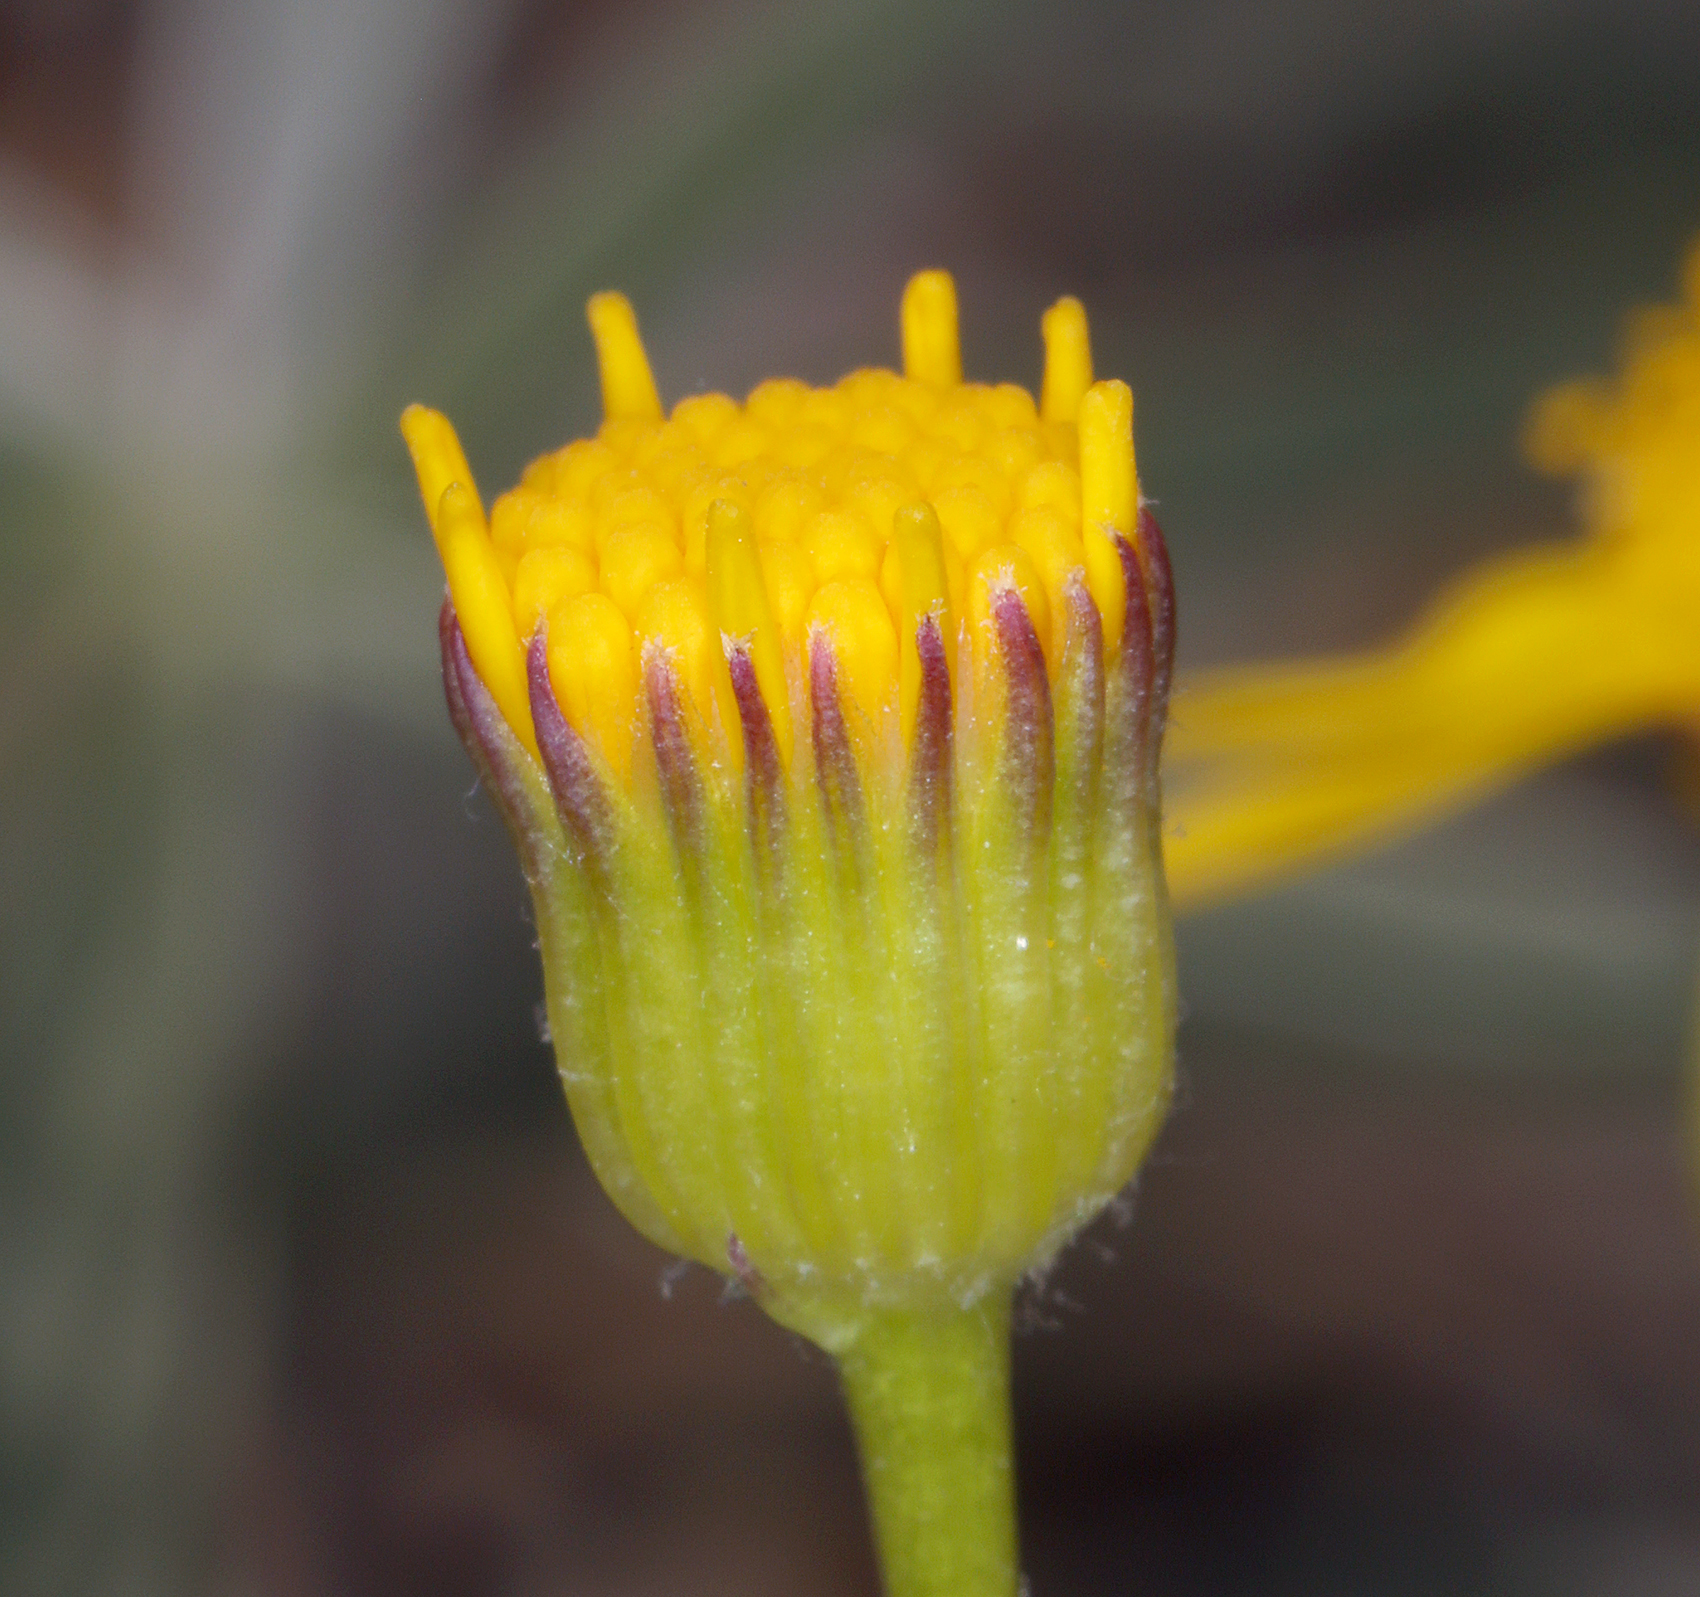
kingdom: Plantae
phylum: Tracheophyta
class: Magnoliopsida
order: Asterales
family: Asteraceae
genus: Packera
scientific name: Packera multilobata
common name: Lobe-leaf groundsel
